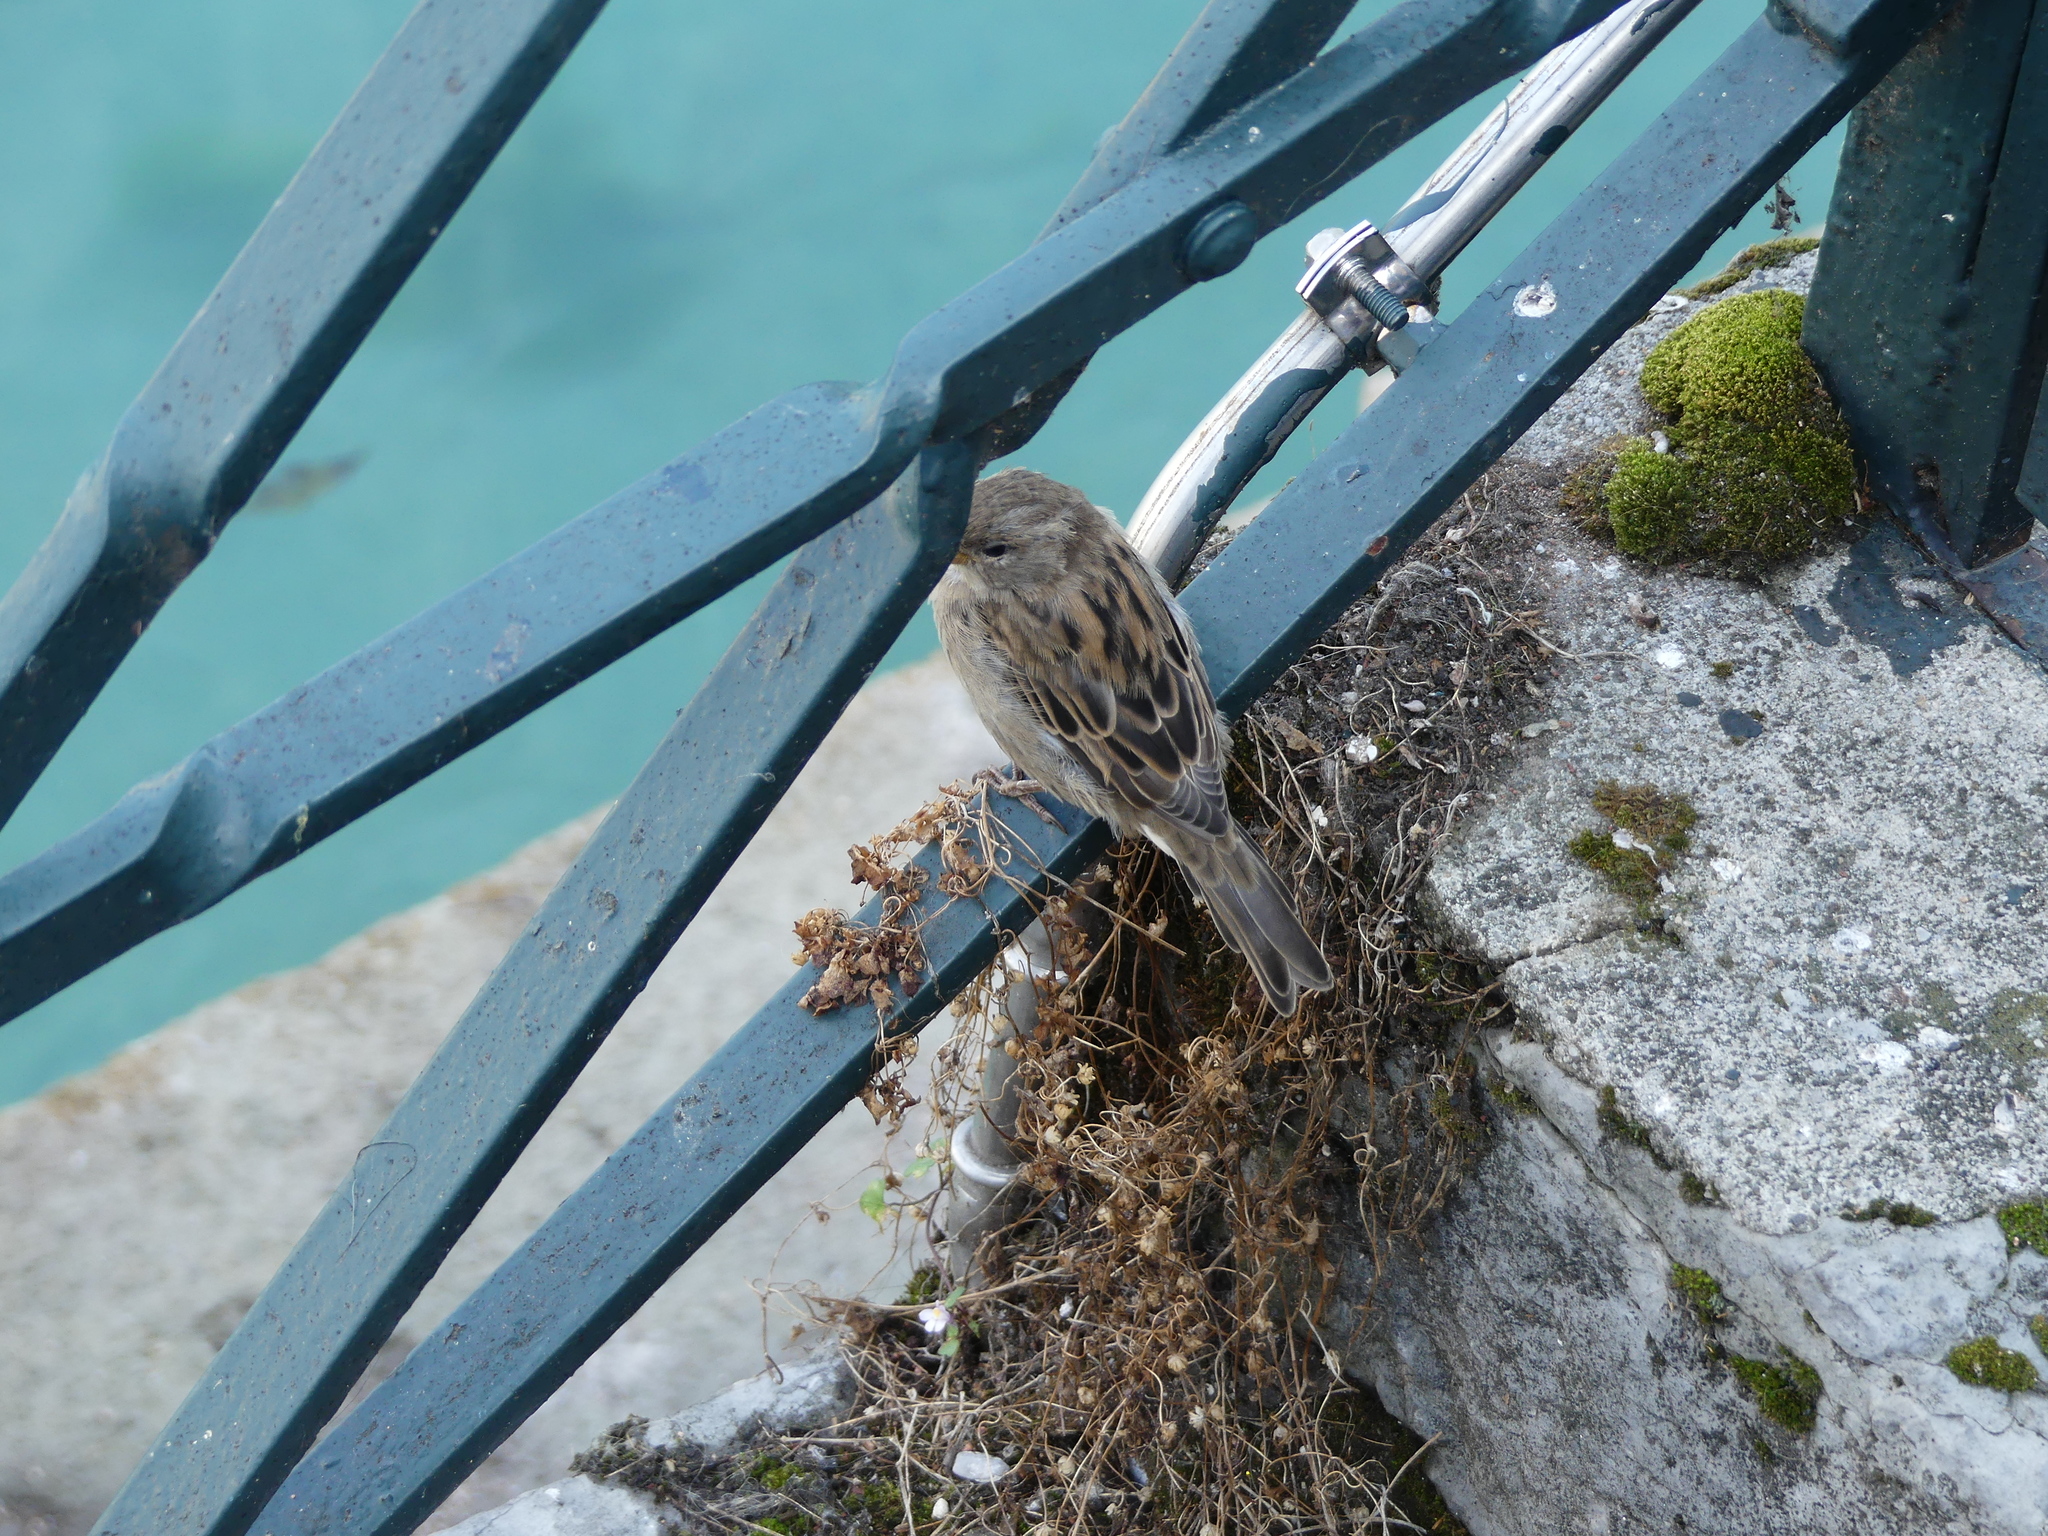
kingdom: Animalia
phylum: Chordata
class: Aves
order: Passeriformes
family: Passeridae
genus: Passer
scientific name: Passer domesticus
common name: House sparrow
